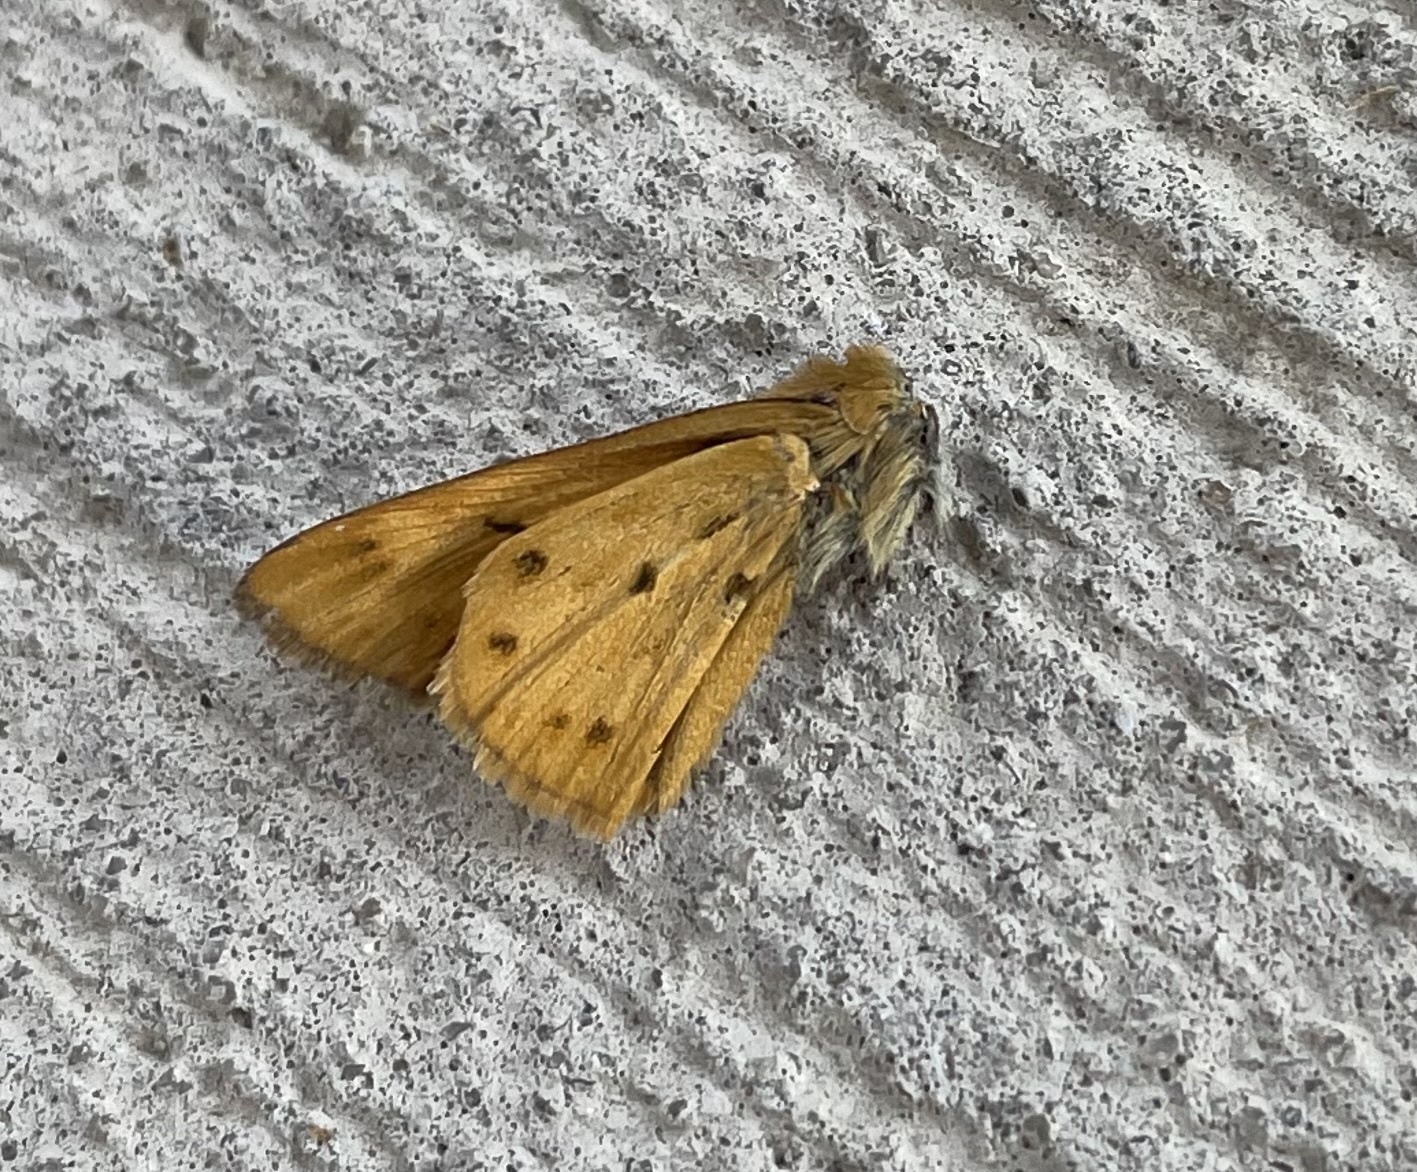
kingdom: Animalia
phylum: Arthropoda
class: Insecta
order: Lepidoptera
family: Hesperiidae
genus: Hylephila
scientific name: Hylephila phyleus
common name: Fiery skipper
